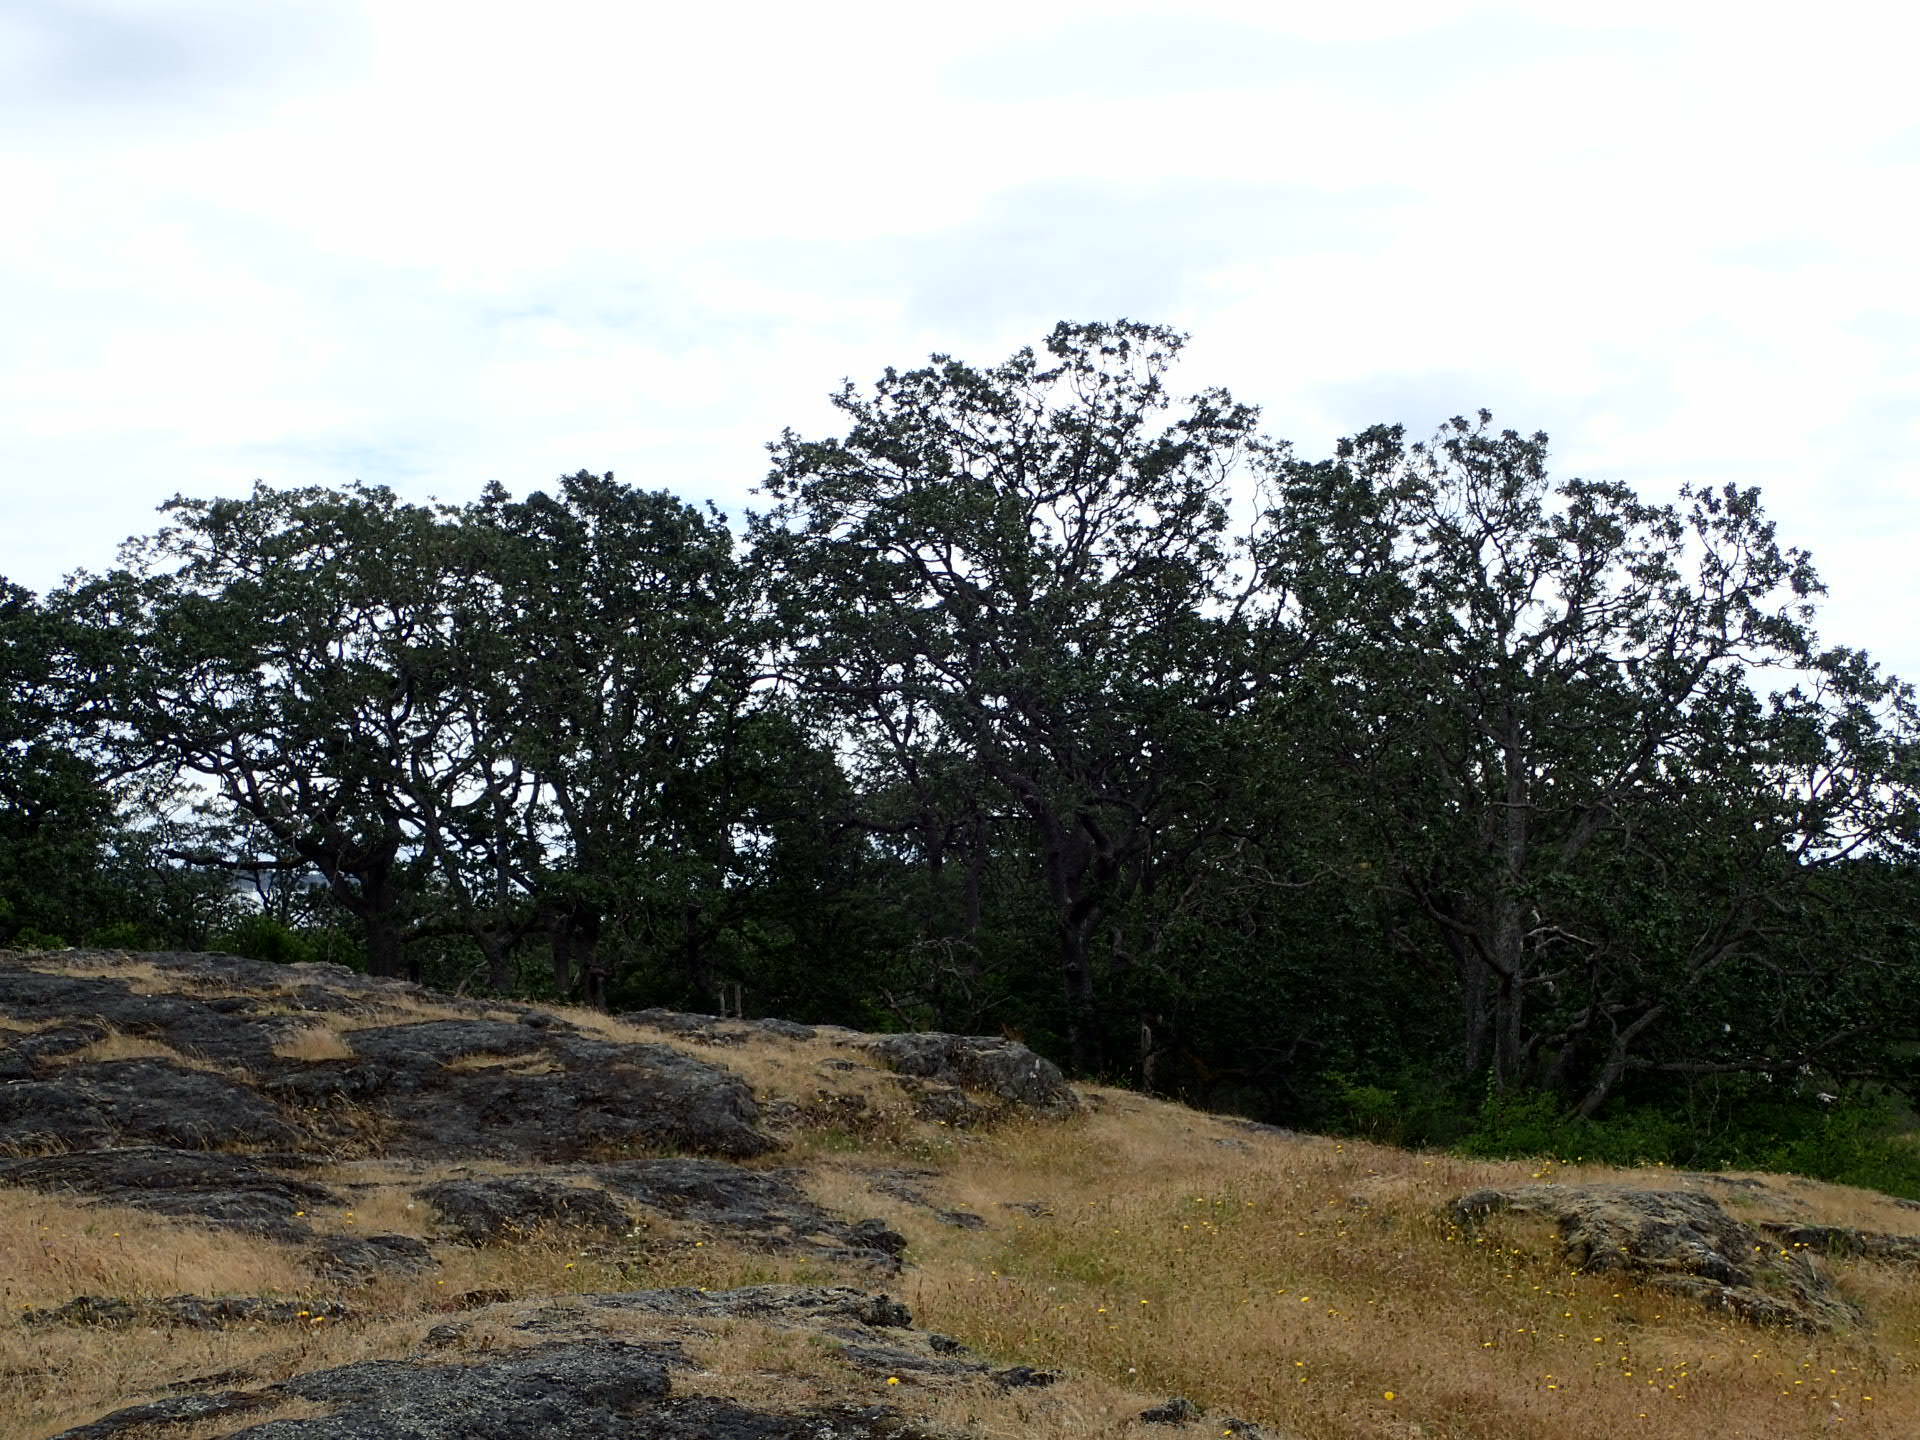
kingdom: Plantae
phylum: Tracheophyta
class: Magnoliopsida
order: Fagales
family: Fagaceae
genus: Quercus
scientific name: Quercus garryana
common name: Garry oak
